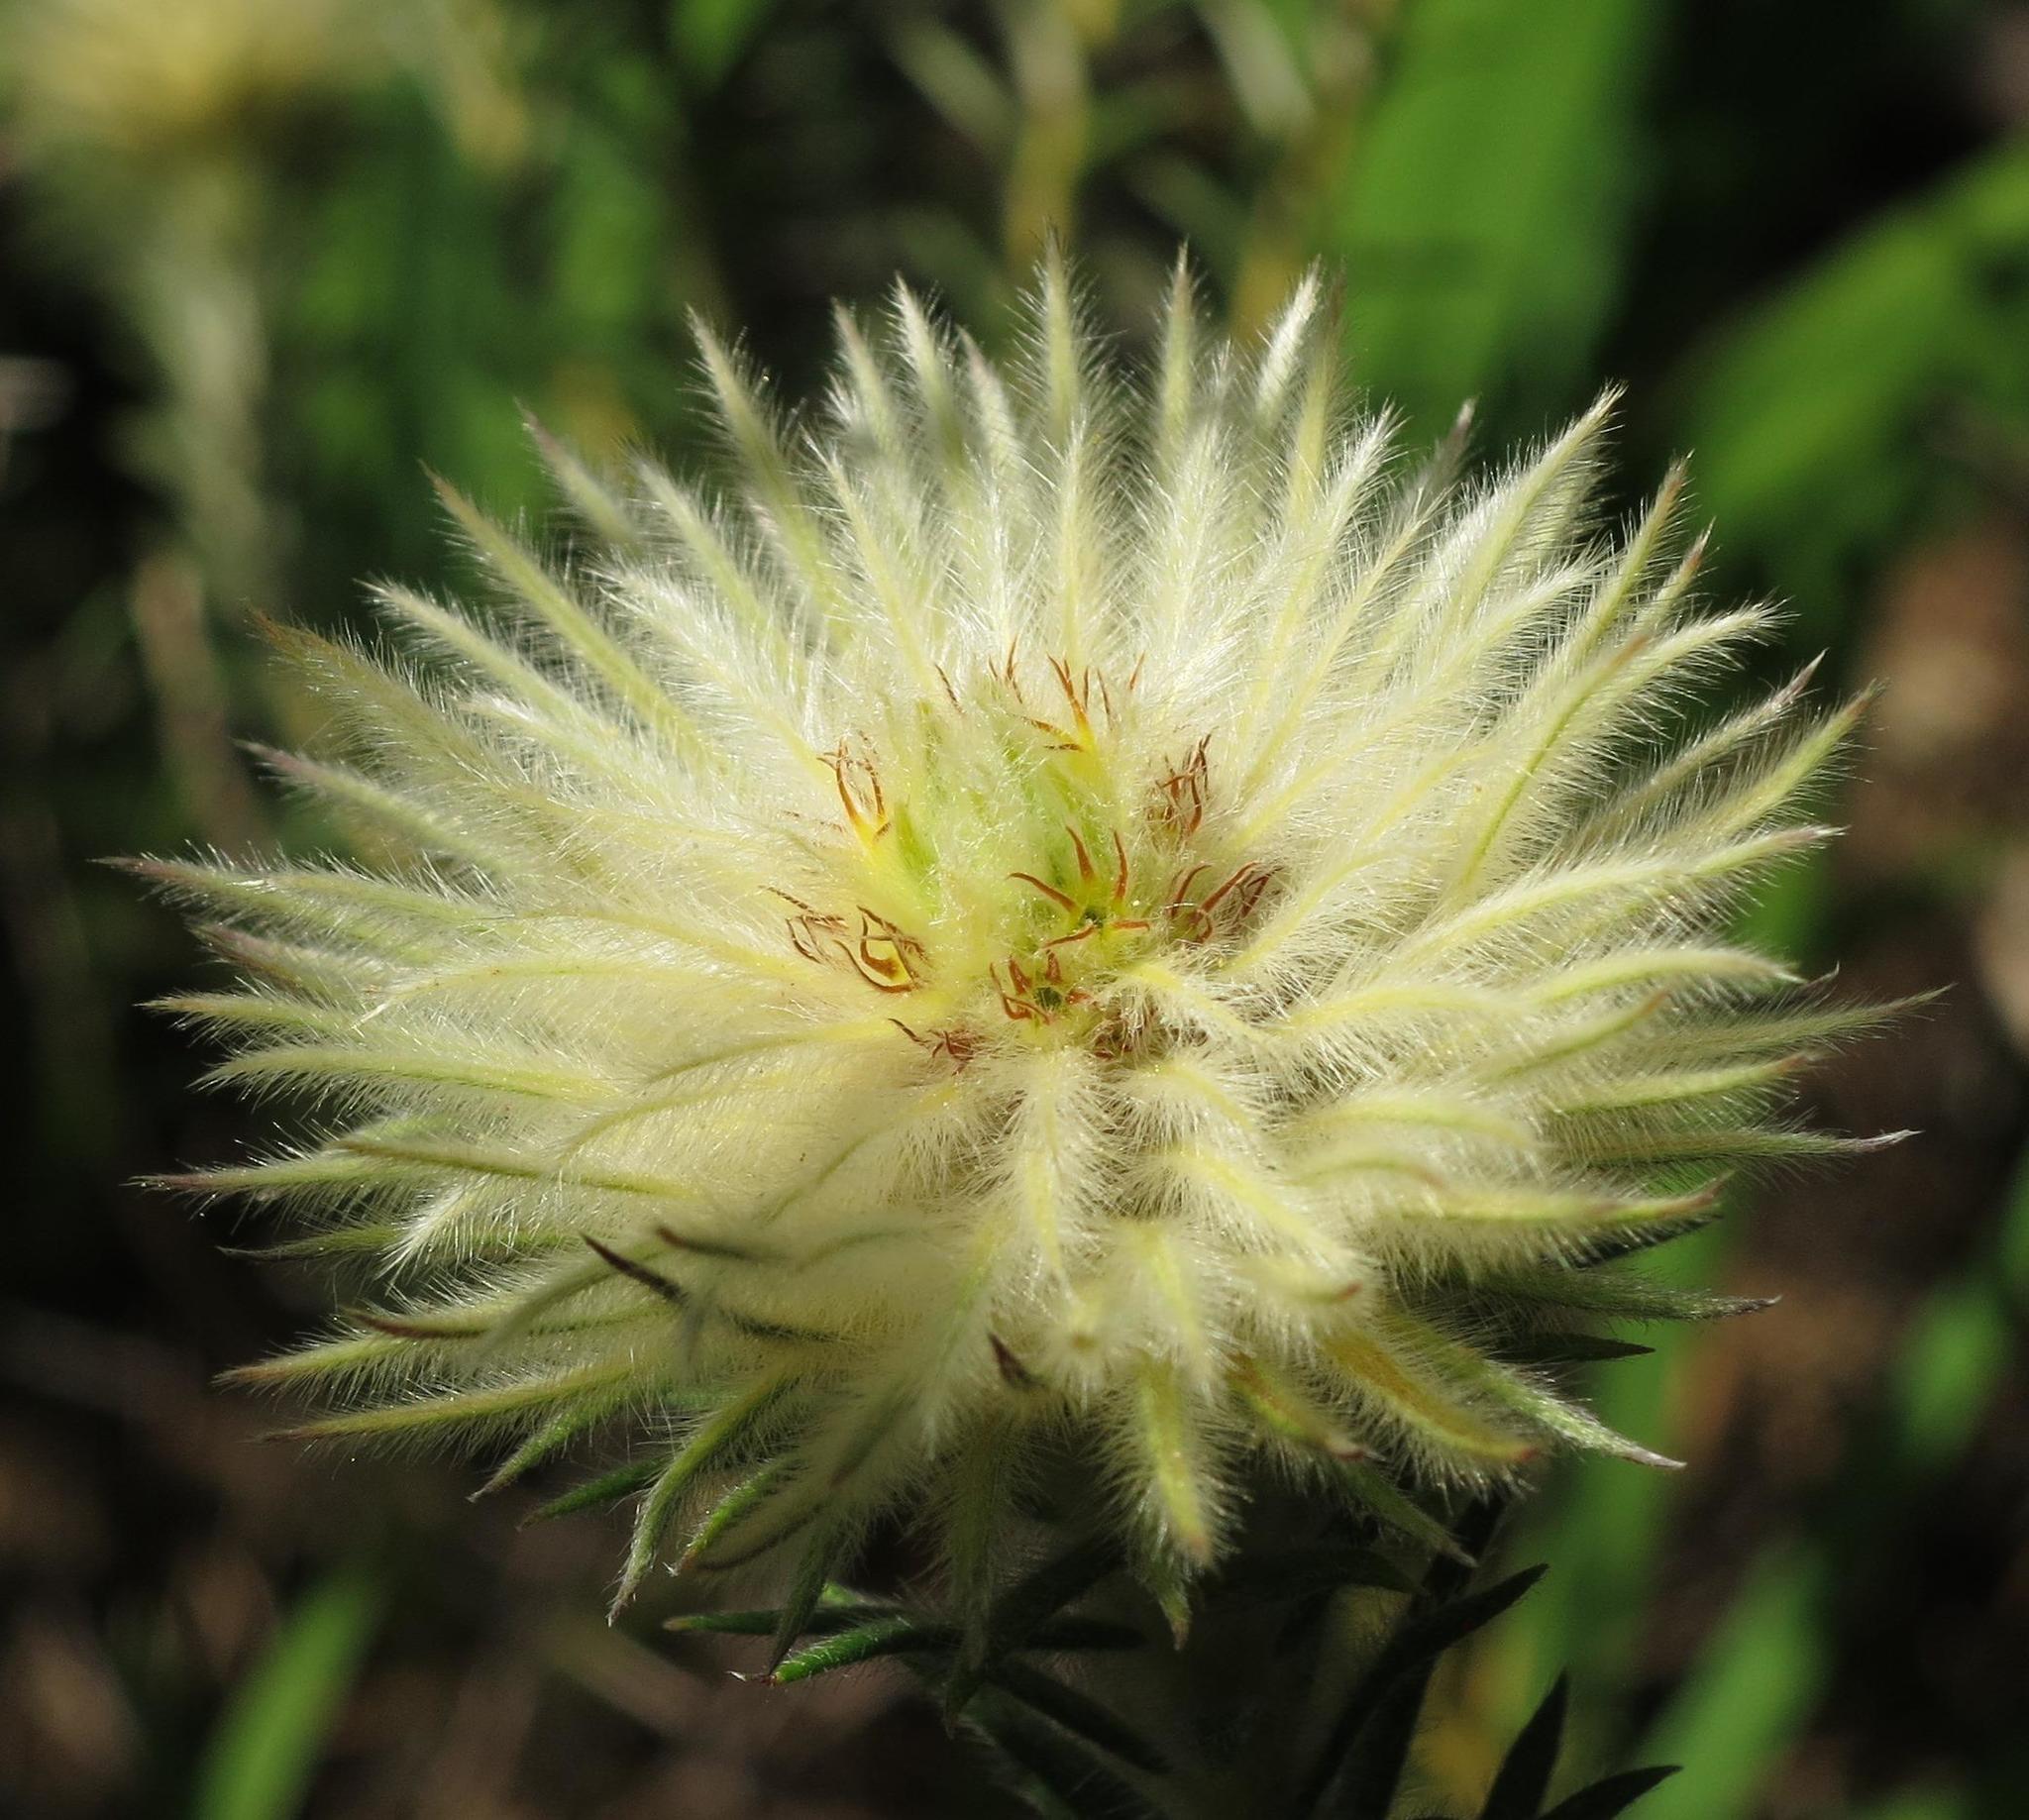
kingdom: Plantae
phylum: Tracheophyta
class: Magnoliopsida
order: Rosales
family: Rhamnaceae
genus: Phylica
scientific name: Phylica plumosa
